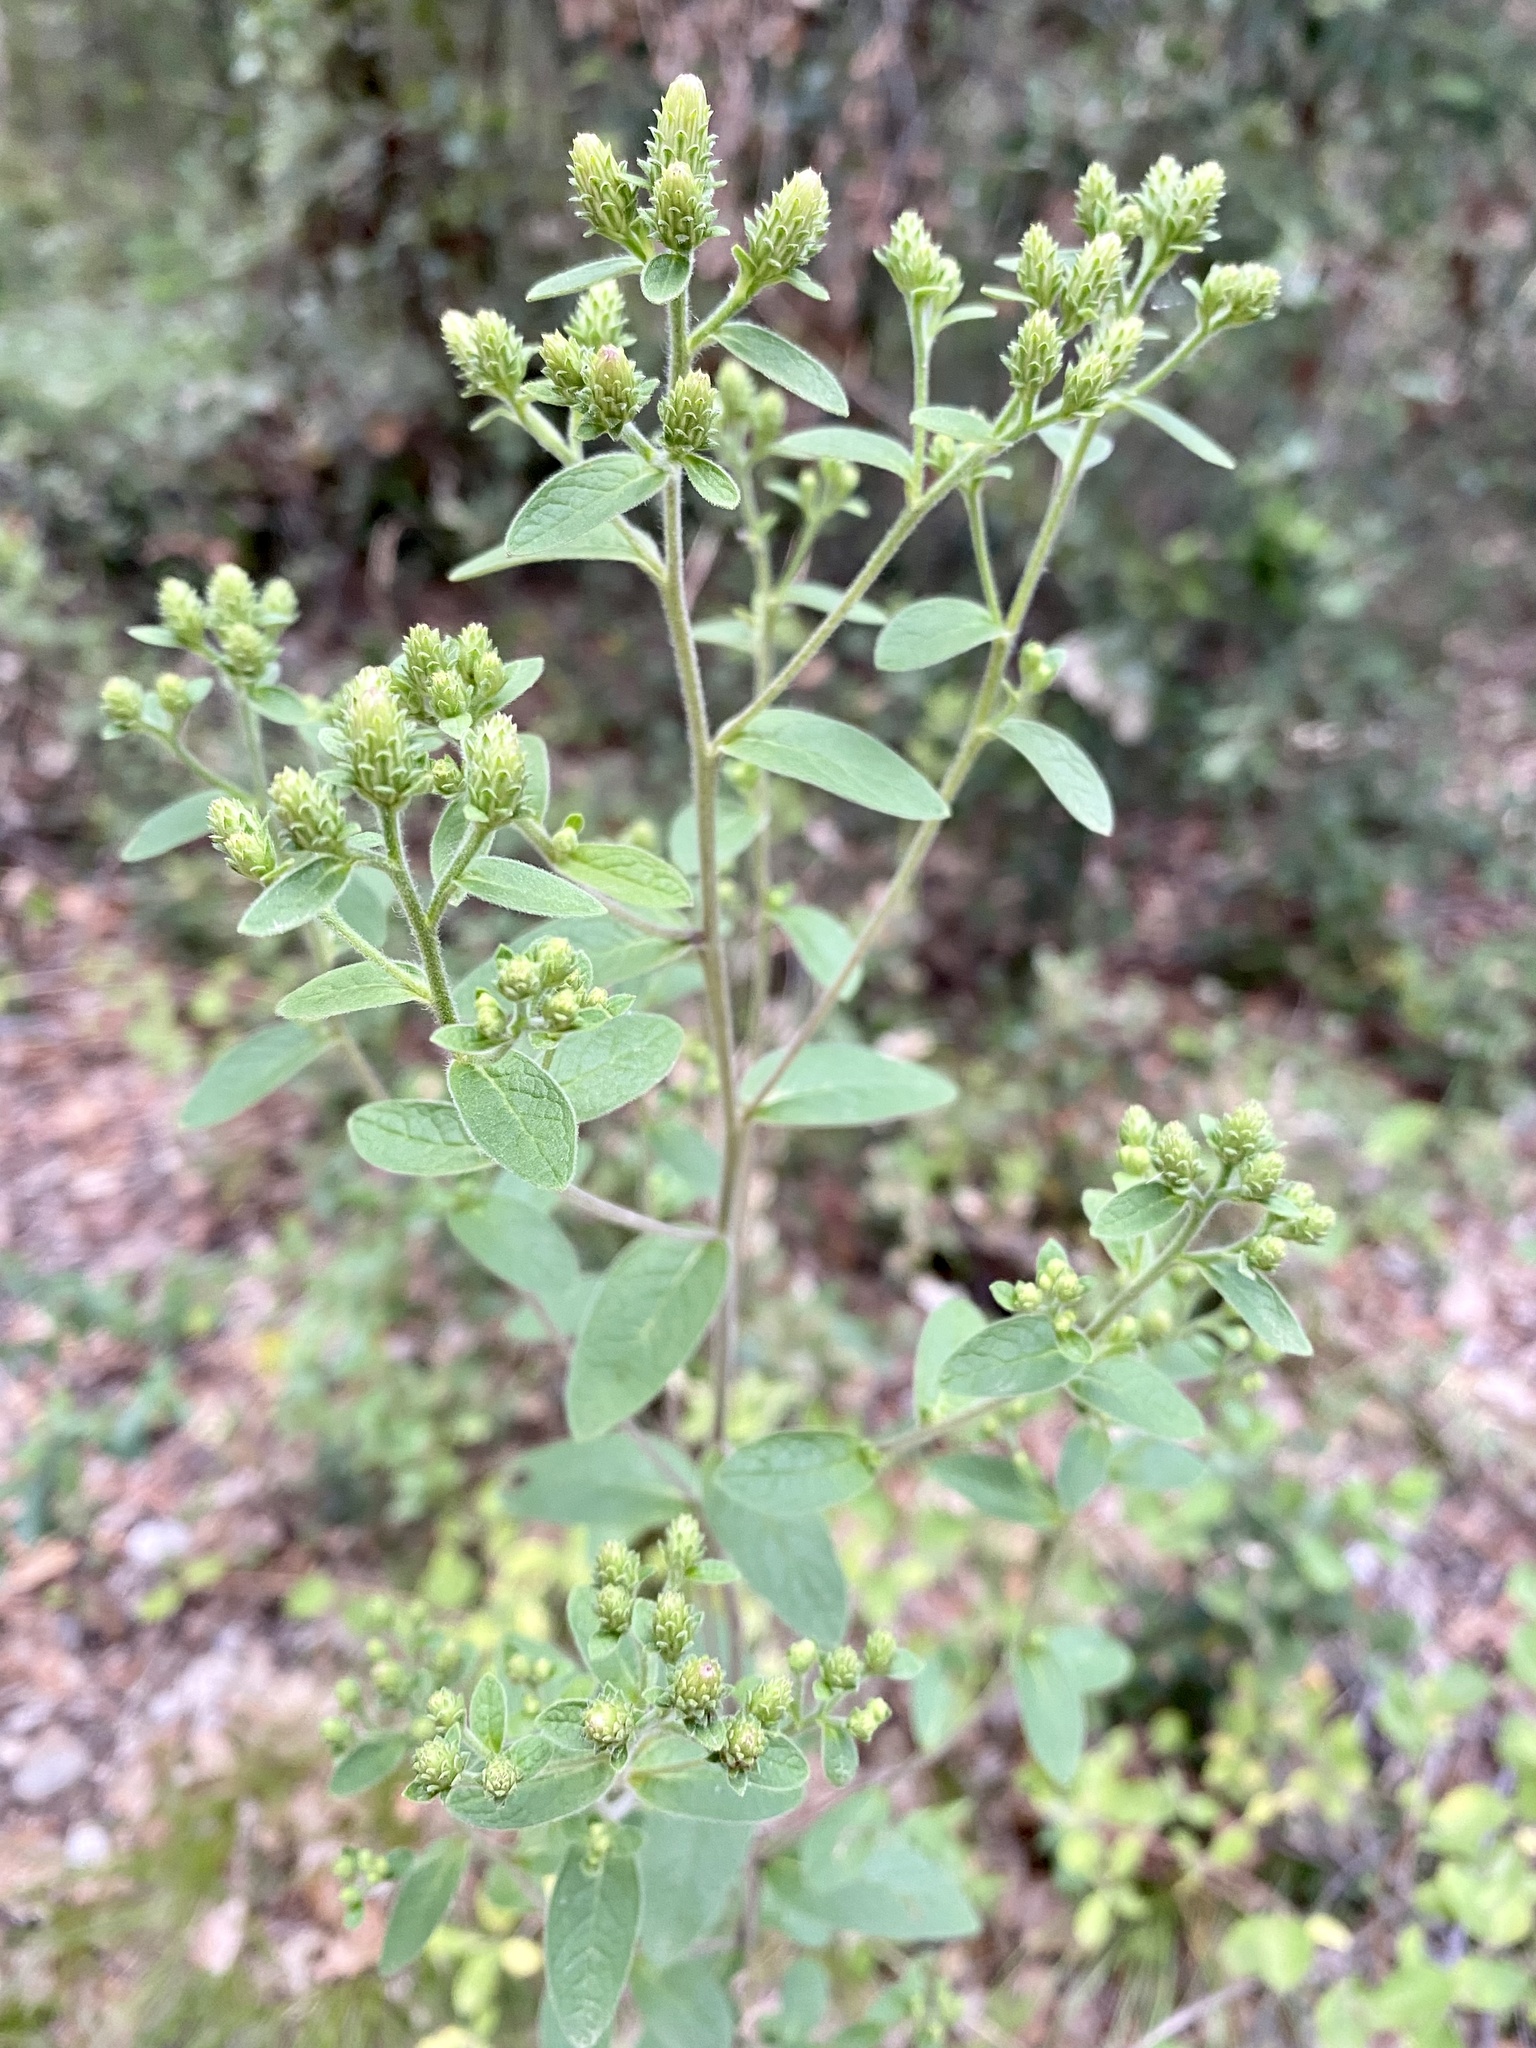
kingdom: Plantae
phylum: Tracheophyta
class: Magnoliopsida
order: Asterales
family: Asteraceae
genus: Pentanema
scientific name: Pentanema squarrosum
